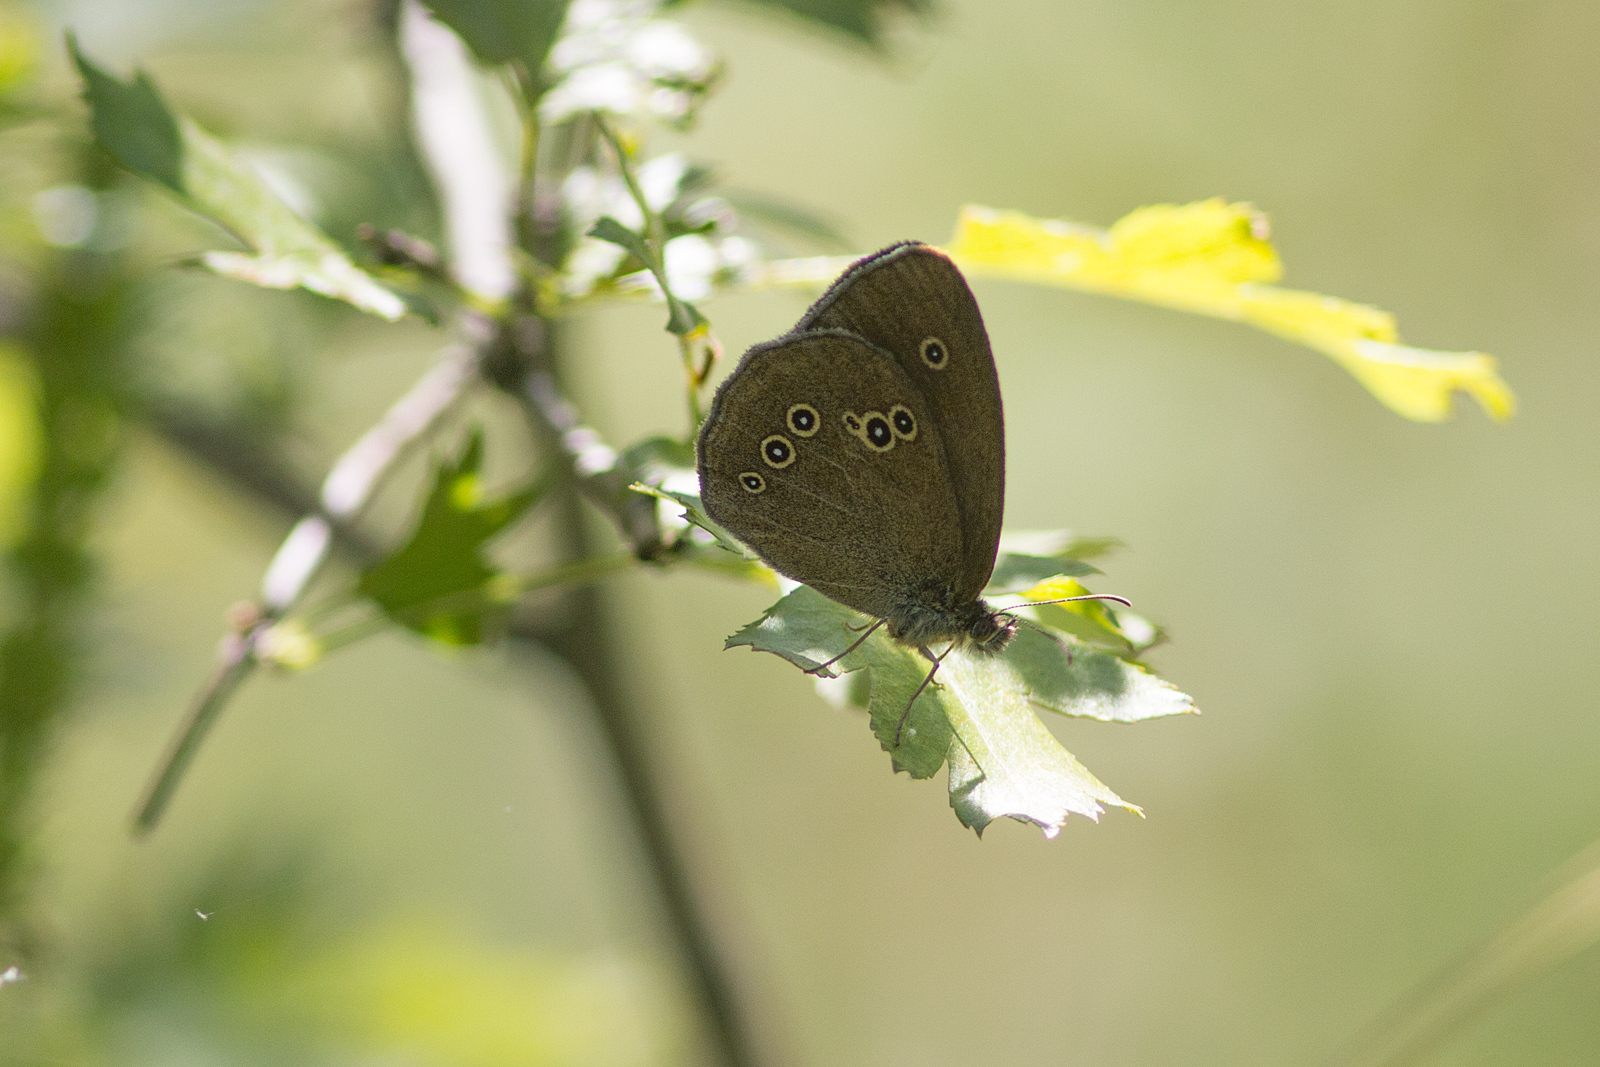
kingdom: Animalia
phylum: Arthropoda
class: Insecta
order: Lepidoptera
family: Nymphalidae
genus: Aphantopus
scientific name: Aphantopus hyperantus
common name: Ringlet
